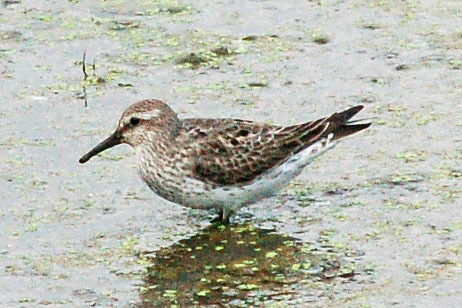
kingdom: Animalia
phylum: Chordata
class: Aves
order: Charadriiformes
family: Scolopacidae
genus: Calidris
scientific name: Calidris fuscicollis
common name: White-rumped sandpiper
